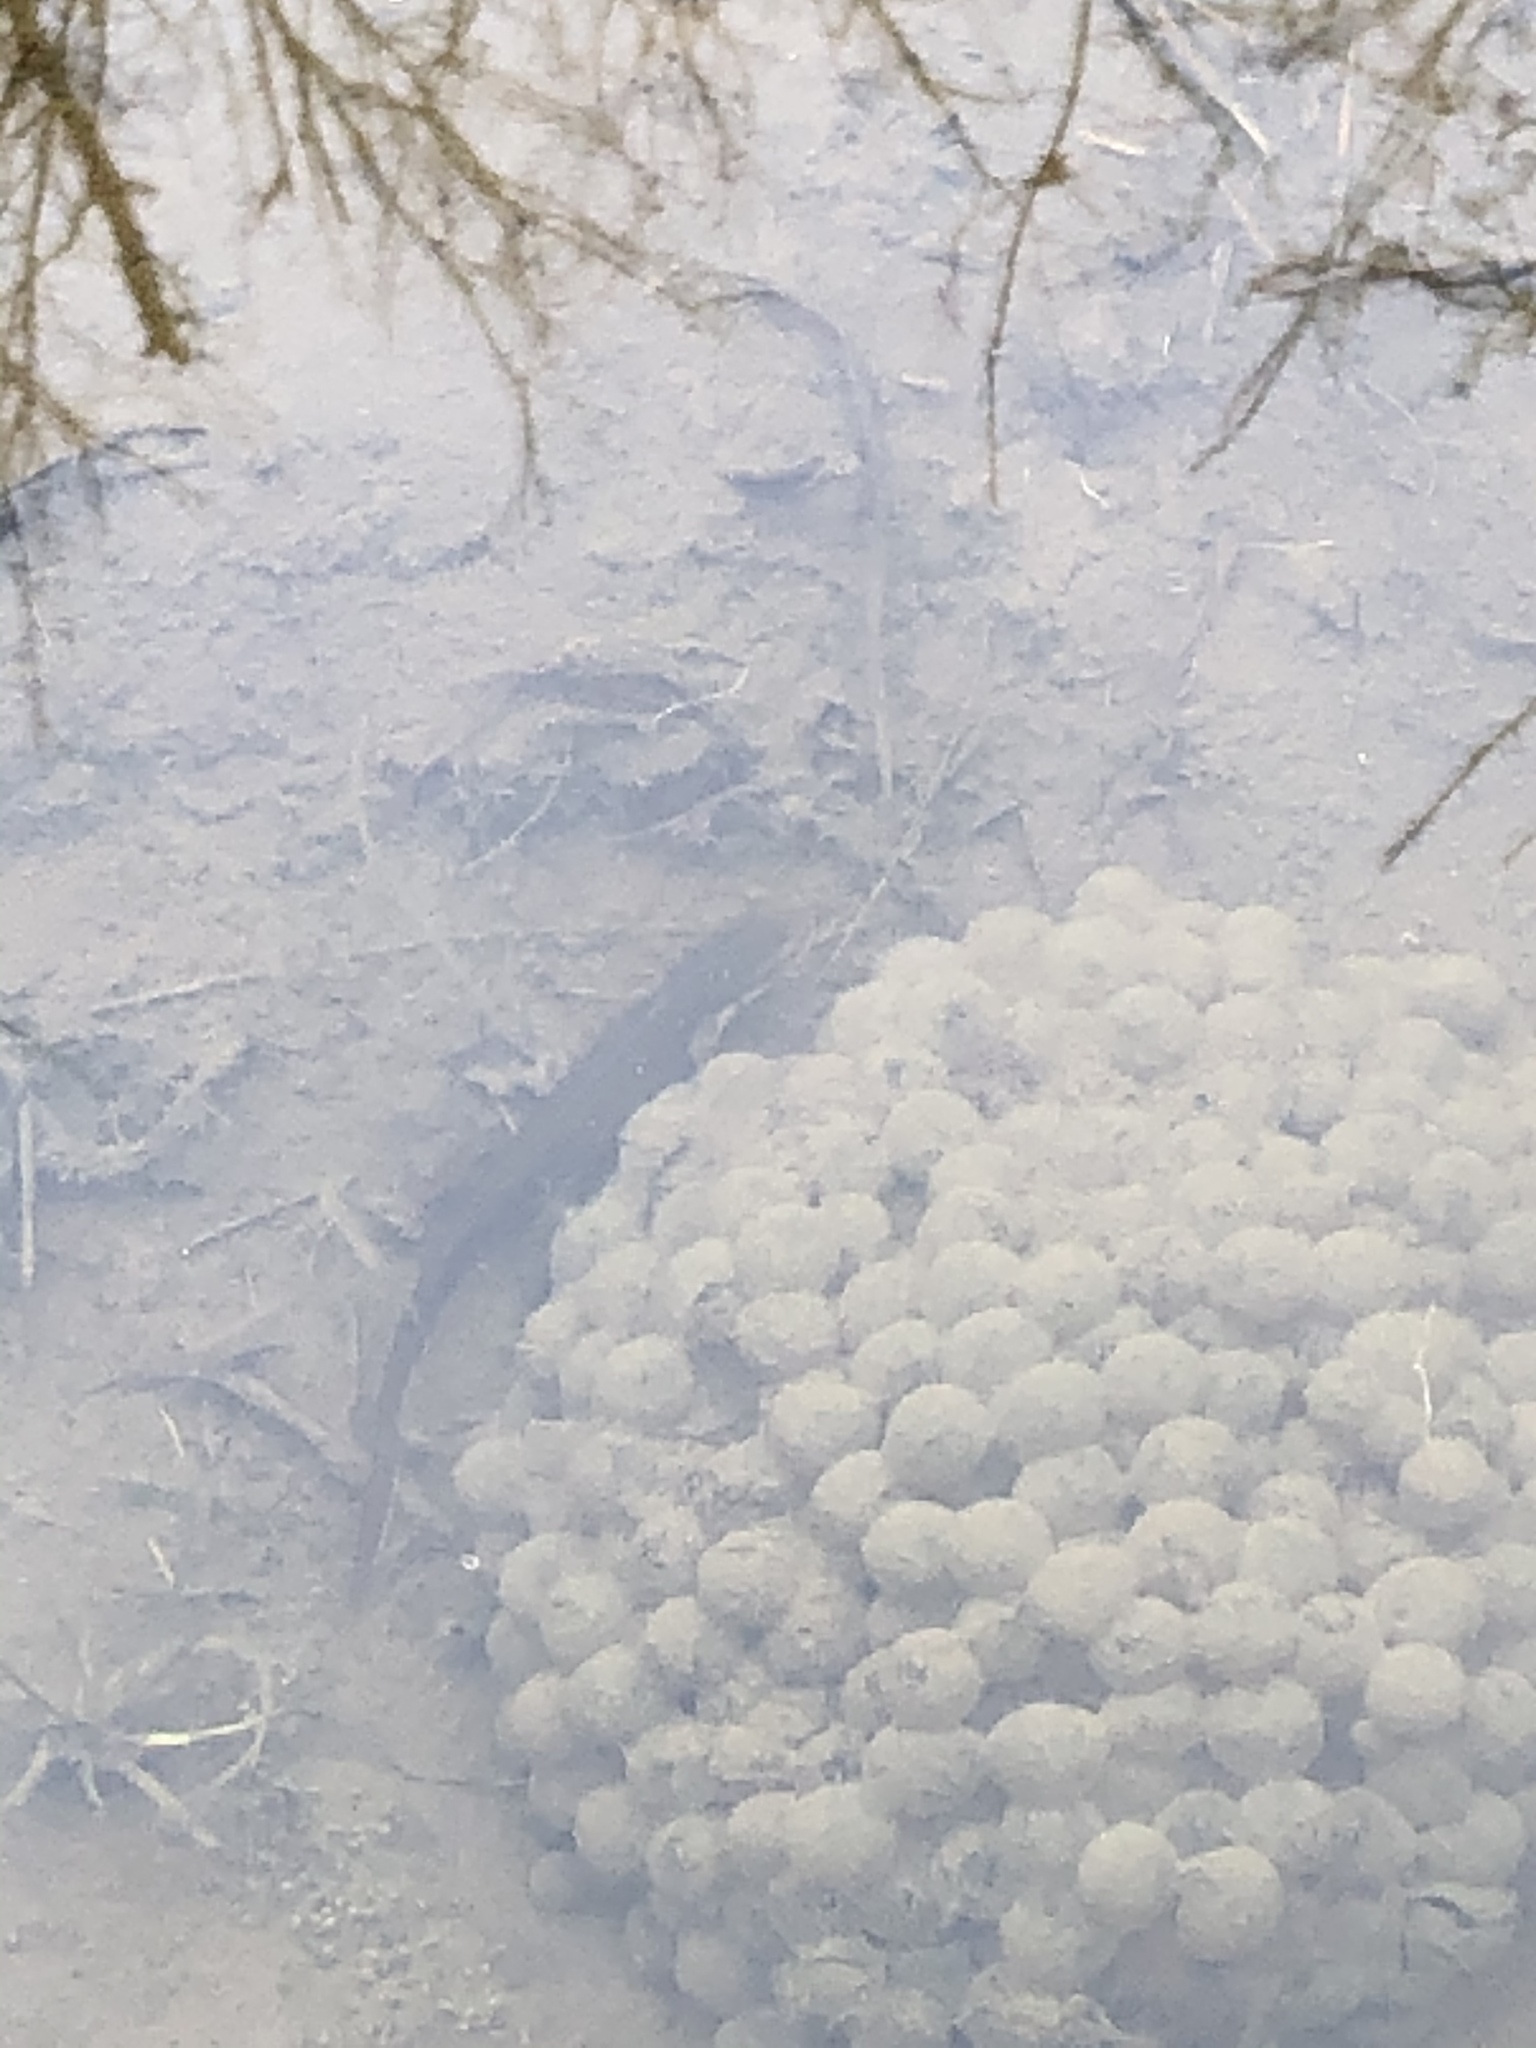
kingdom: Animalia
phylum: Chordata
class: Amphibia
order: Caudata
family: Salamandridae
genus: Notophthalmus
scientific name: Notophthalmus viridescens
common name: Eastern newt
